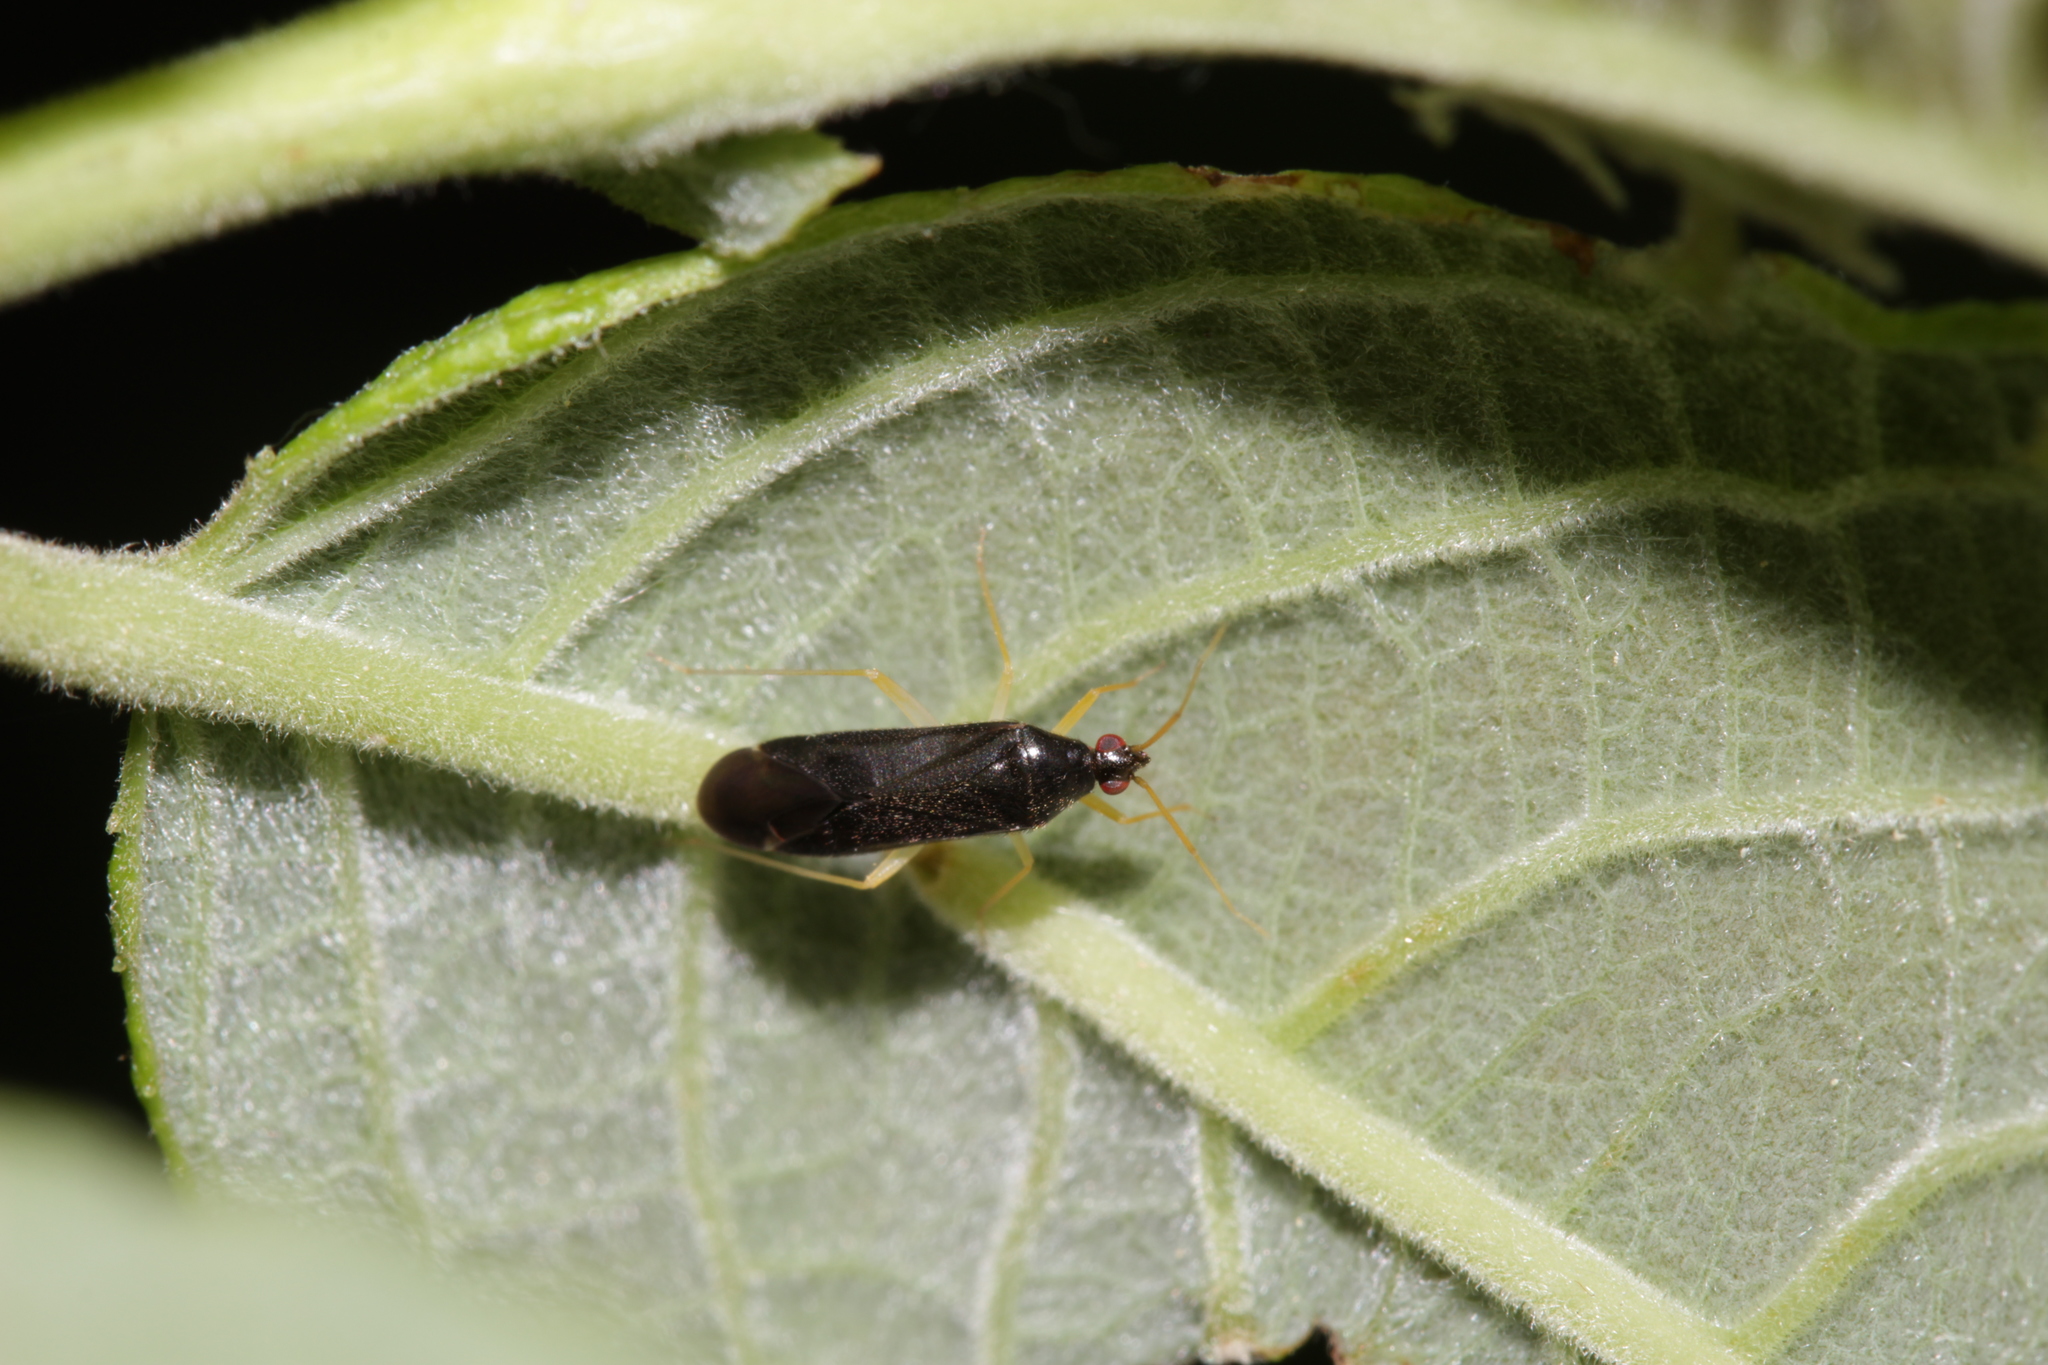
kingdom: Animalia
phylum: Arthropoda
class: Insecta
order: Hemiptera
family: Miridae
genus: Phylus
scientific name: Phylus coryli
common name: Plant bug
